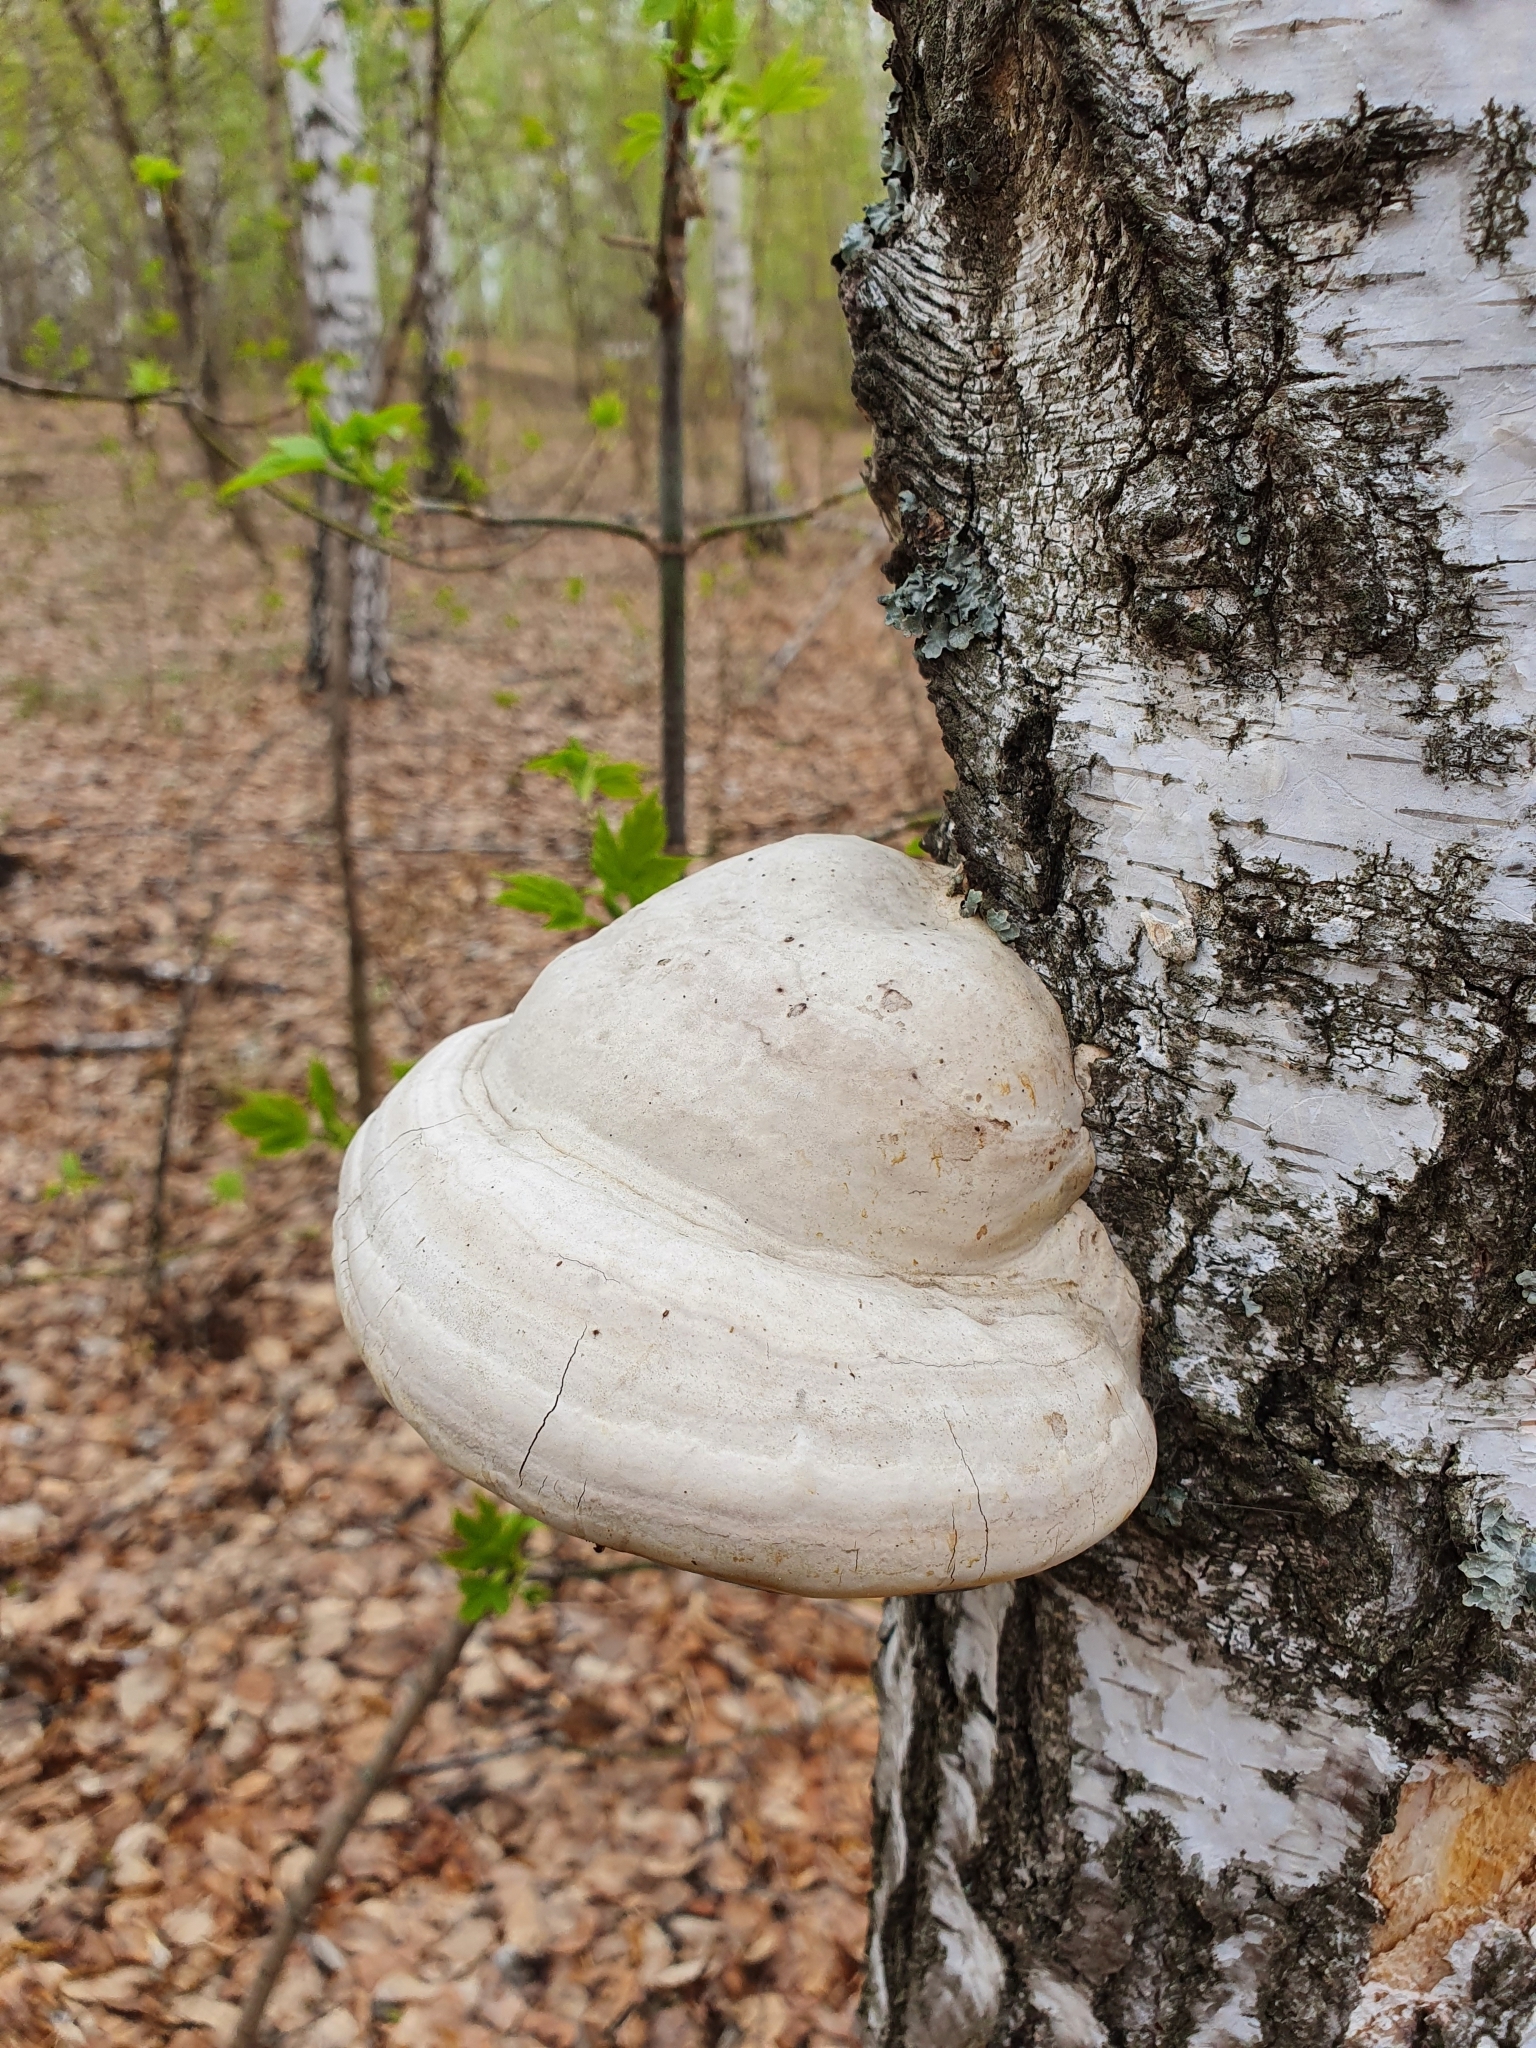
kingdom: Fungi
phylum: Basidiomycota
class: Agaricomycetes
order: Polyporales
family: Polyporaceae
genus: Fomes
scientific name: Fomes fomentarius
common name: Hoof fungus
